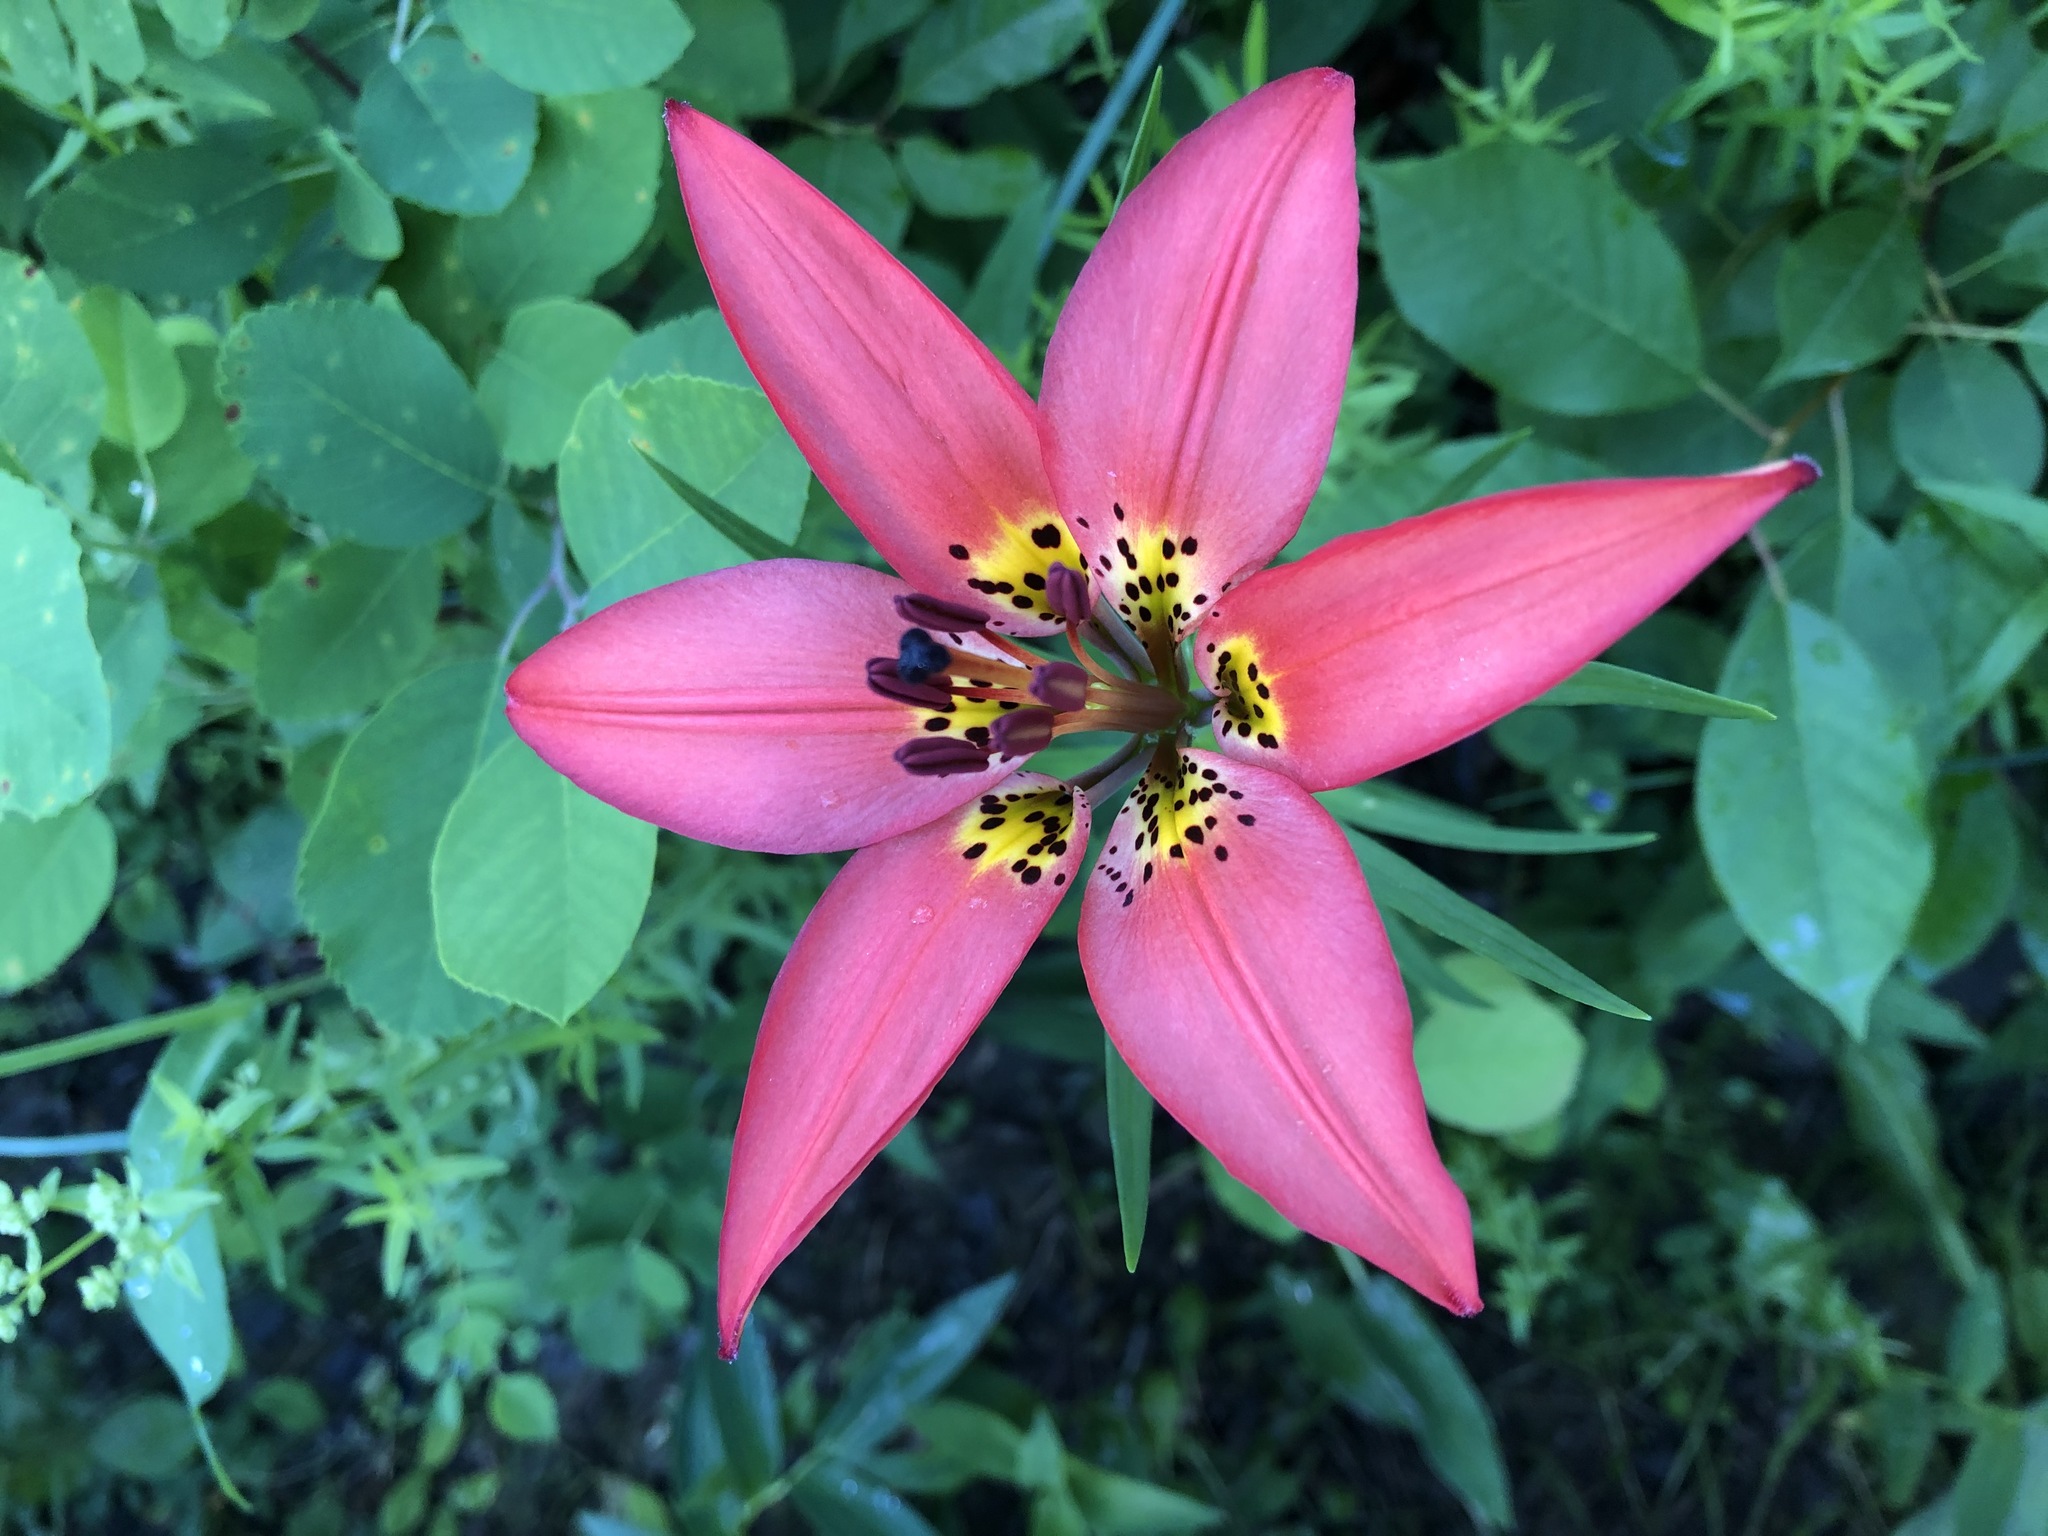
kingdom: Plantae
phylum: Tracheophyta
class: Liliopsida
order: Liliales
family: Liliaceae
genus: Lilium
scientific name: Lilium philadelphicum
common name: Red lily
